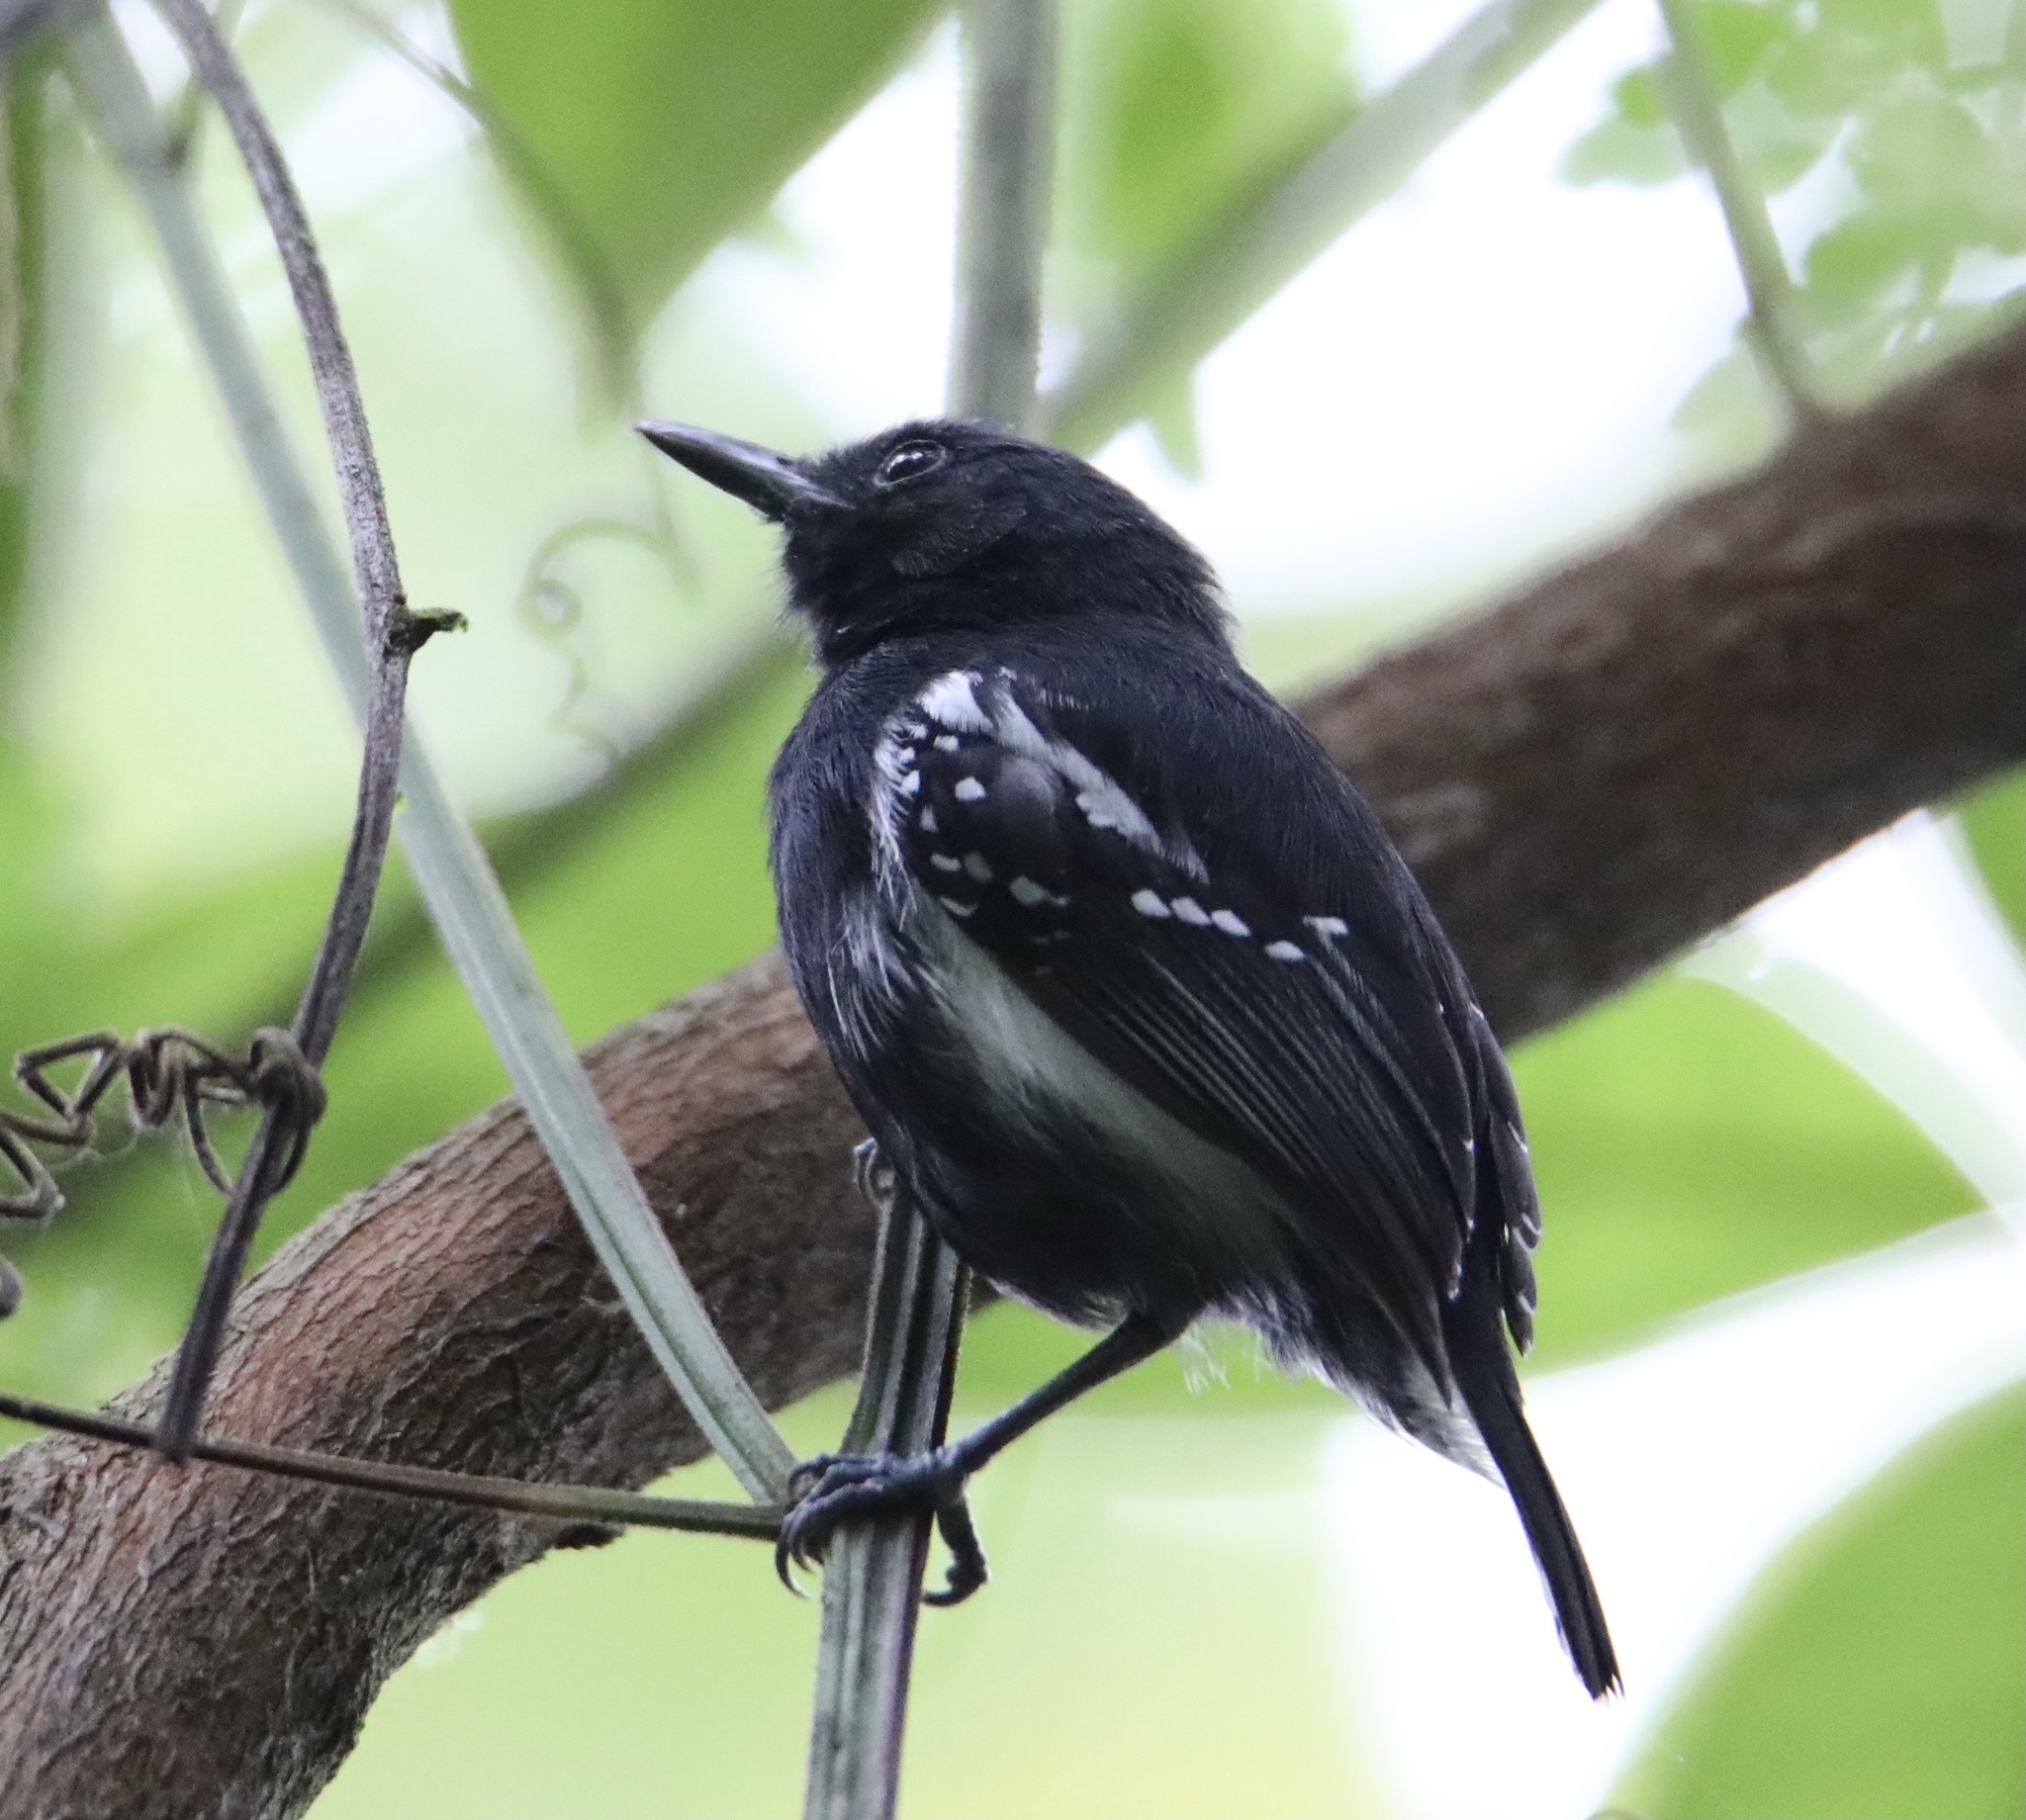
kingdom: Animalia
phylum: Chordata
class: Aves
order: Passeriformes
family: Thamnophilidae
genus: Myrmotherula
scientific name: Myrmotherula axillaris
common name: White-flanked antwren
